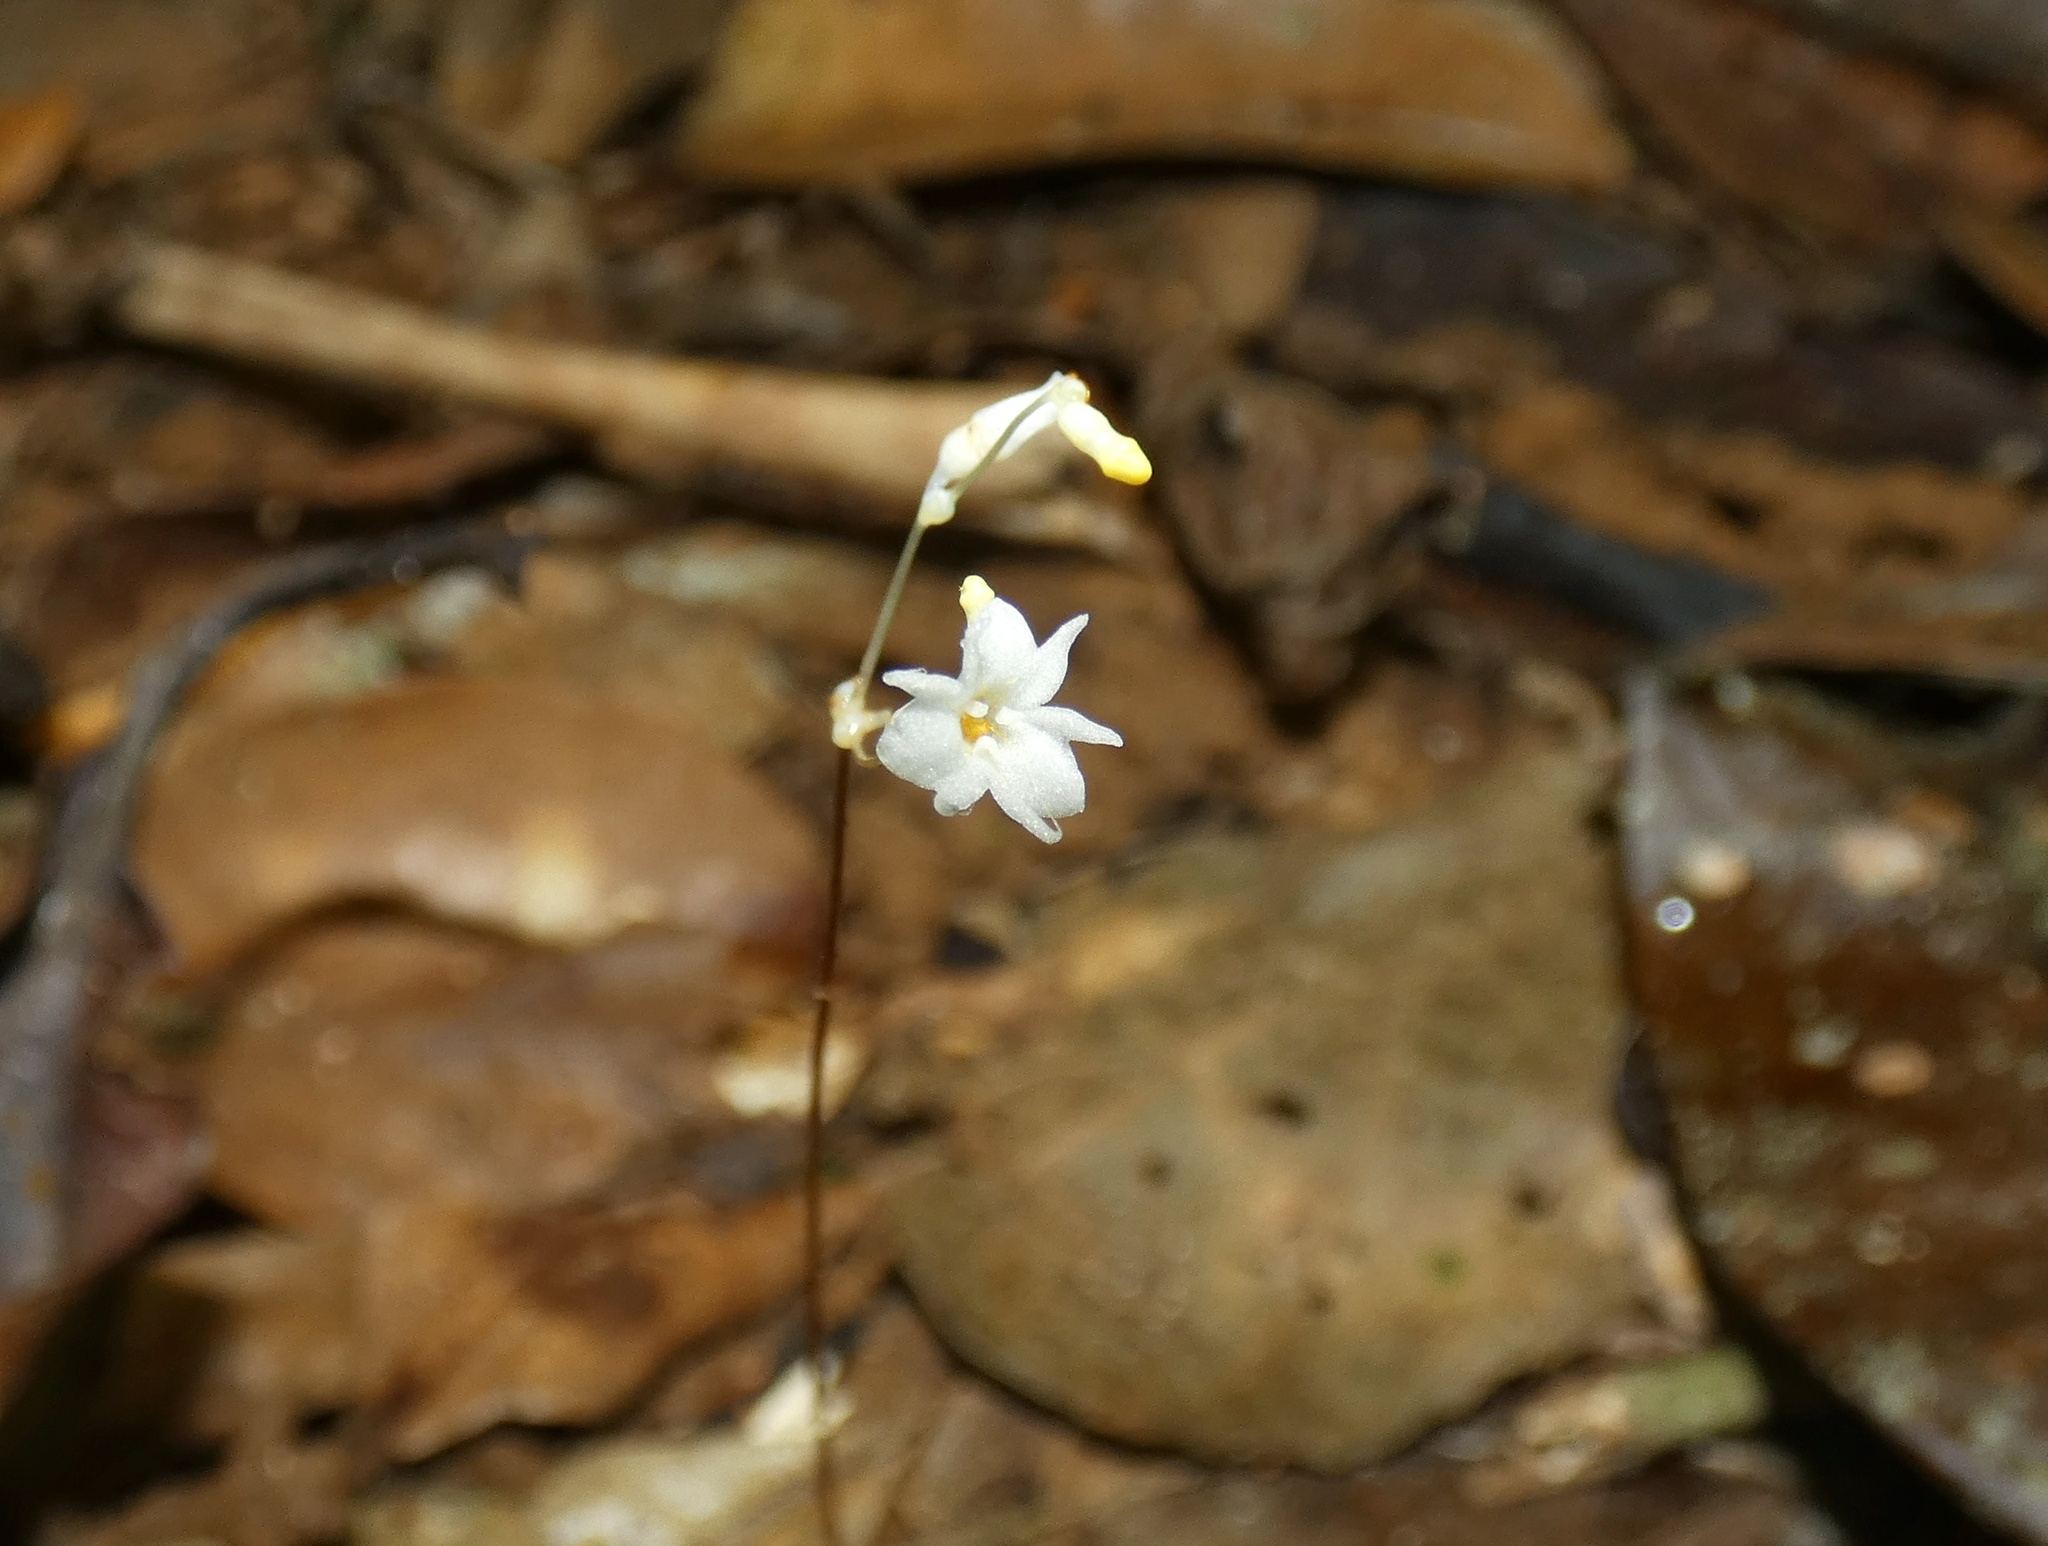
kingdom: Plantae
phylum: Tracheophyta
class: Liliopsida
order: Dioscoreales
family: Burmanniaceae
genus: Gymnosiphon
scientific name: Gymnosiphon suaveolens
